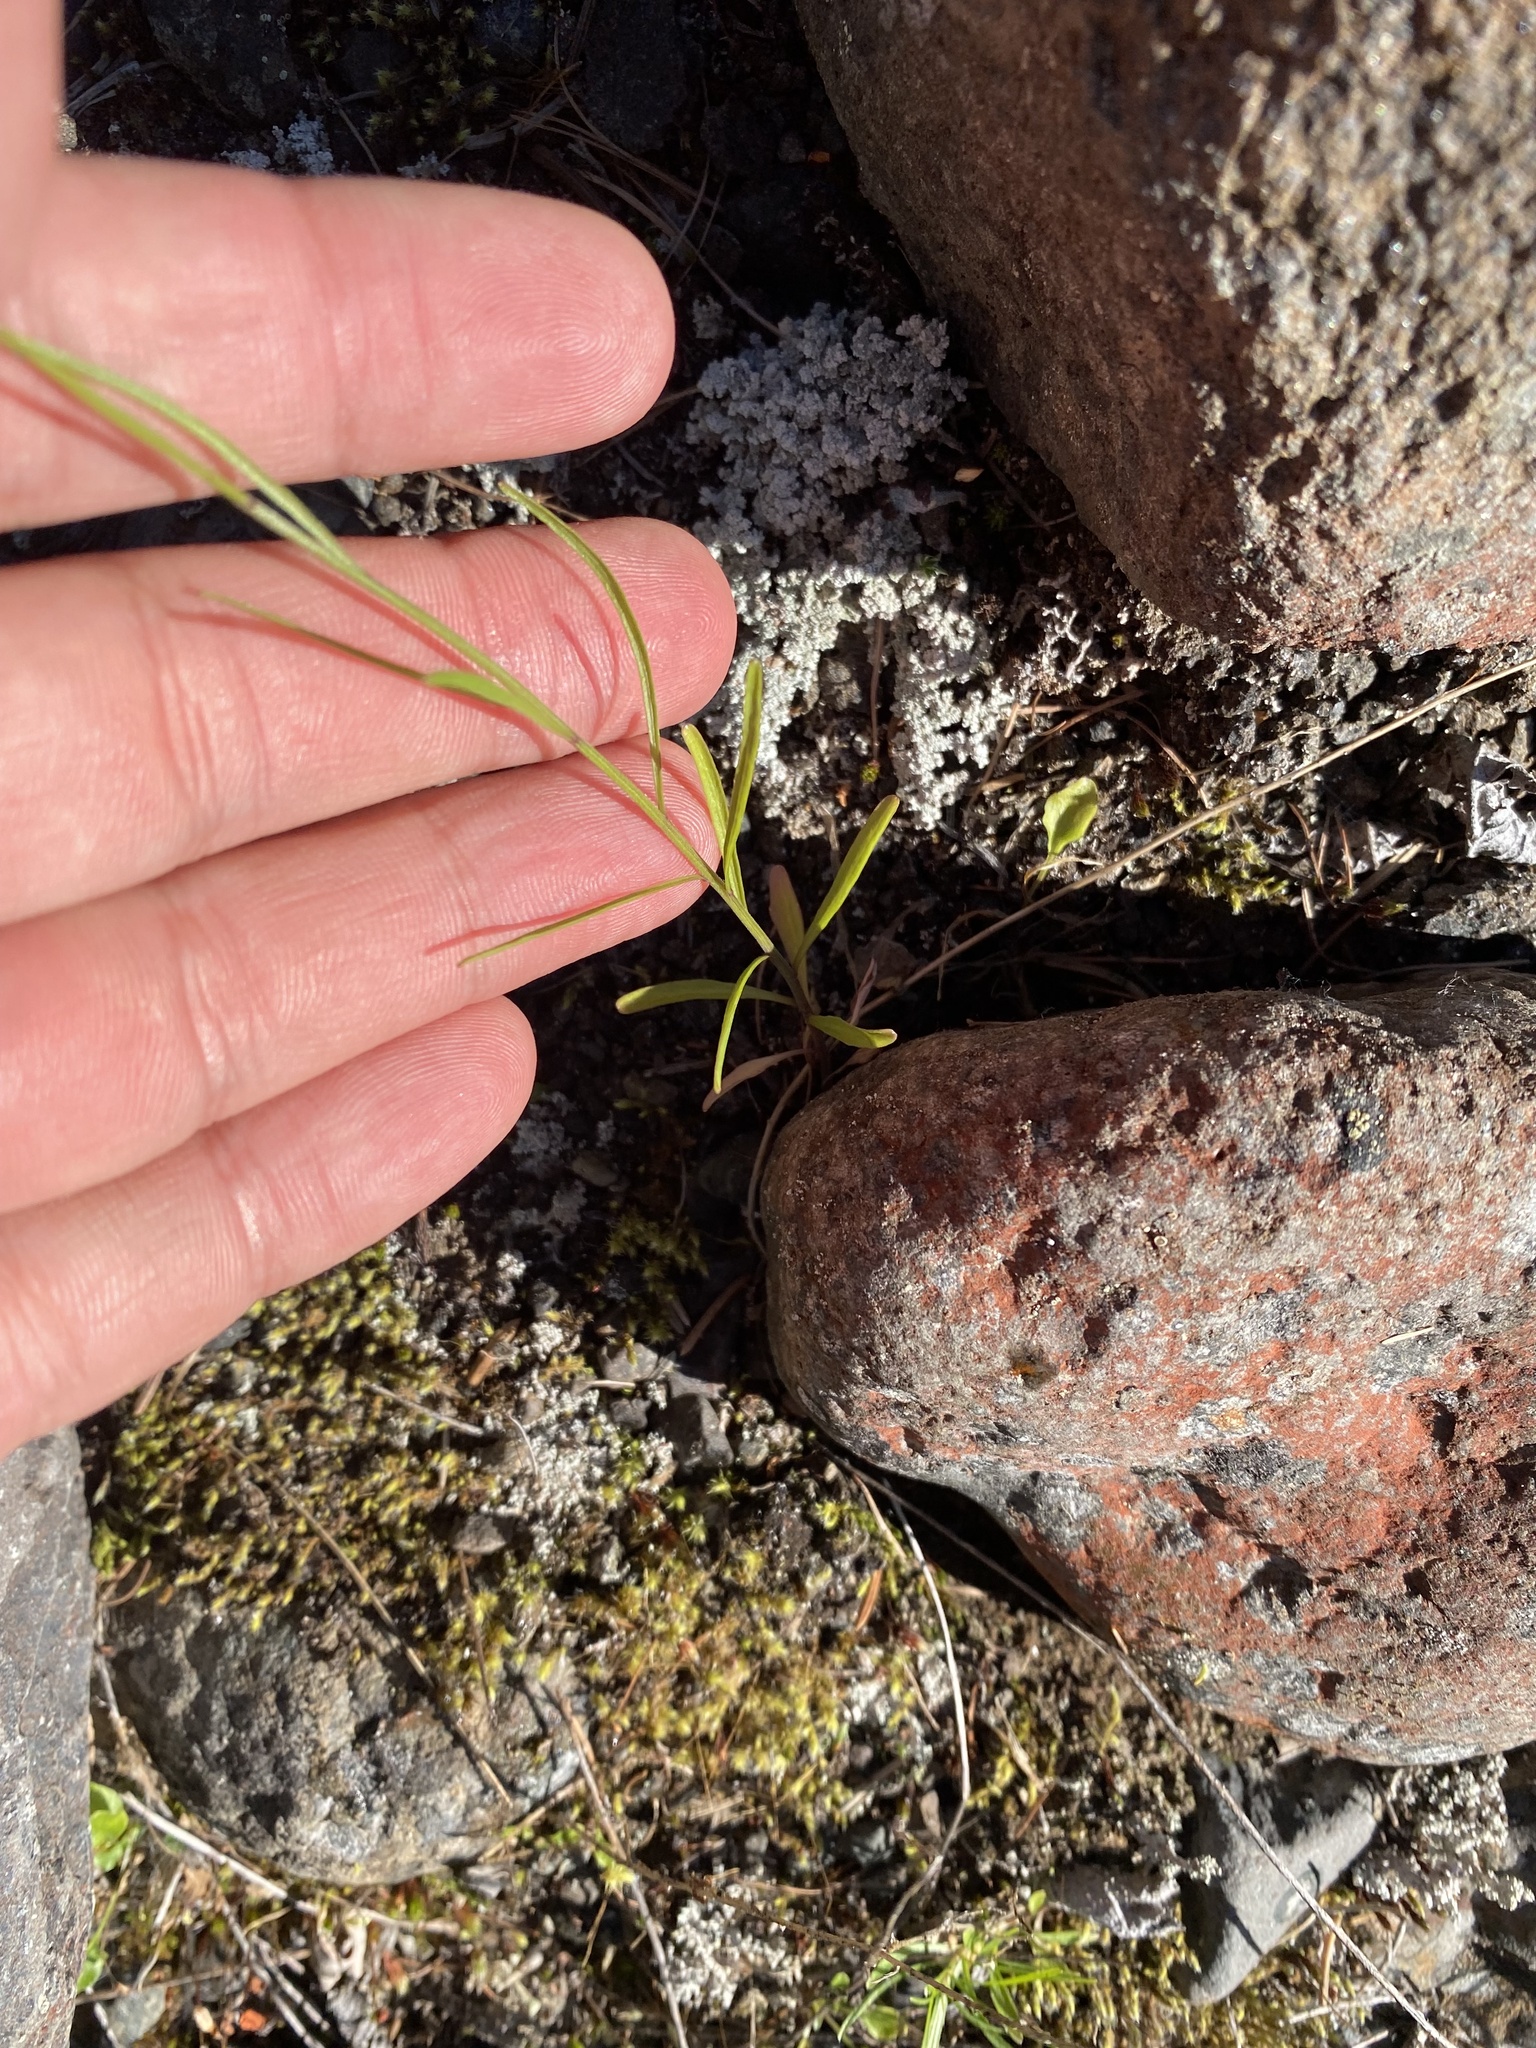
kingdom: Plantae
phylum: Tracheophyta
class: Magnoliopsida
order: Asterales
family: Campanulaceae
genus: Campanula
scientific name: Campanula rotundifolia
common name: Harebell
